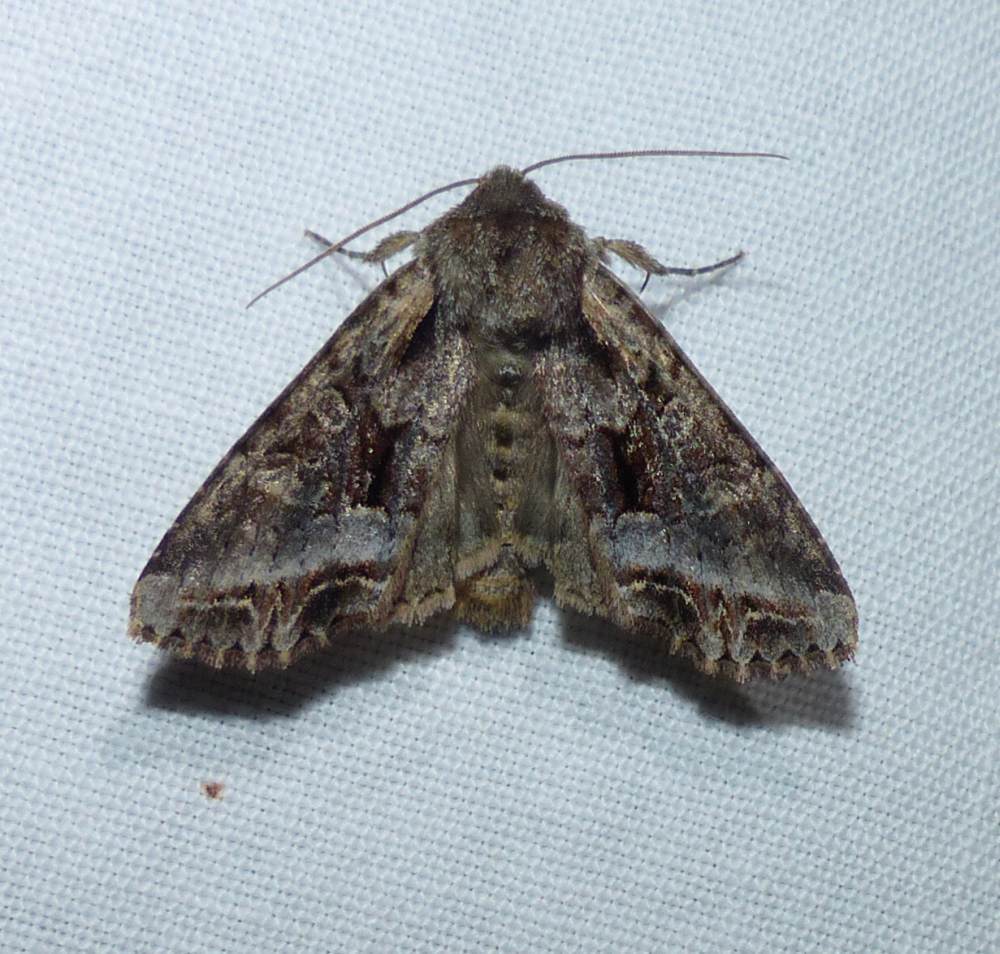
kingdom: Animalia
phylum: Arthropoda
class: Insecta
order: Lepidoptera
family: Noctuidae
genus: Lacanobia
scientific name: Lacanobia grandis
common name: Grand arches moth
